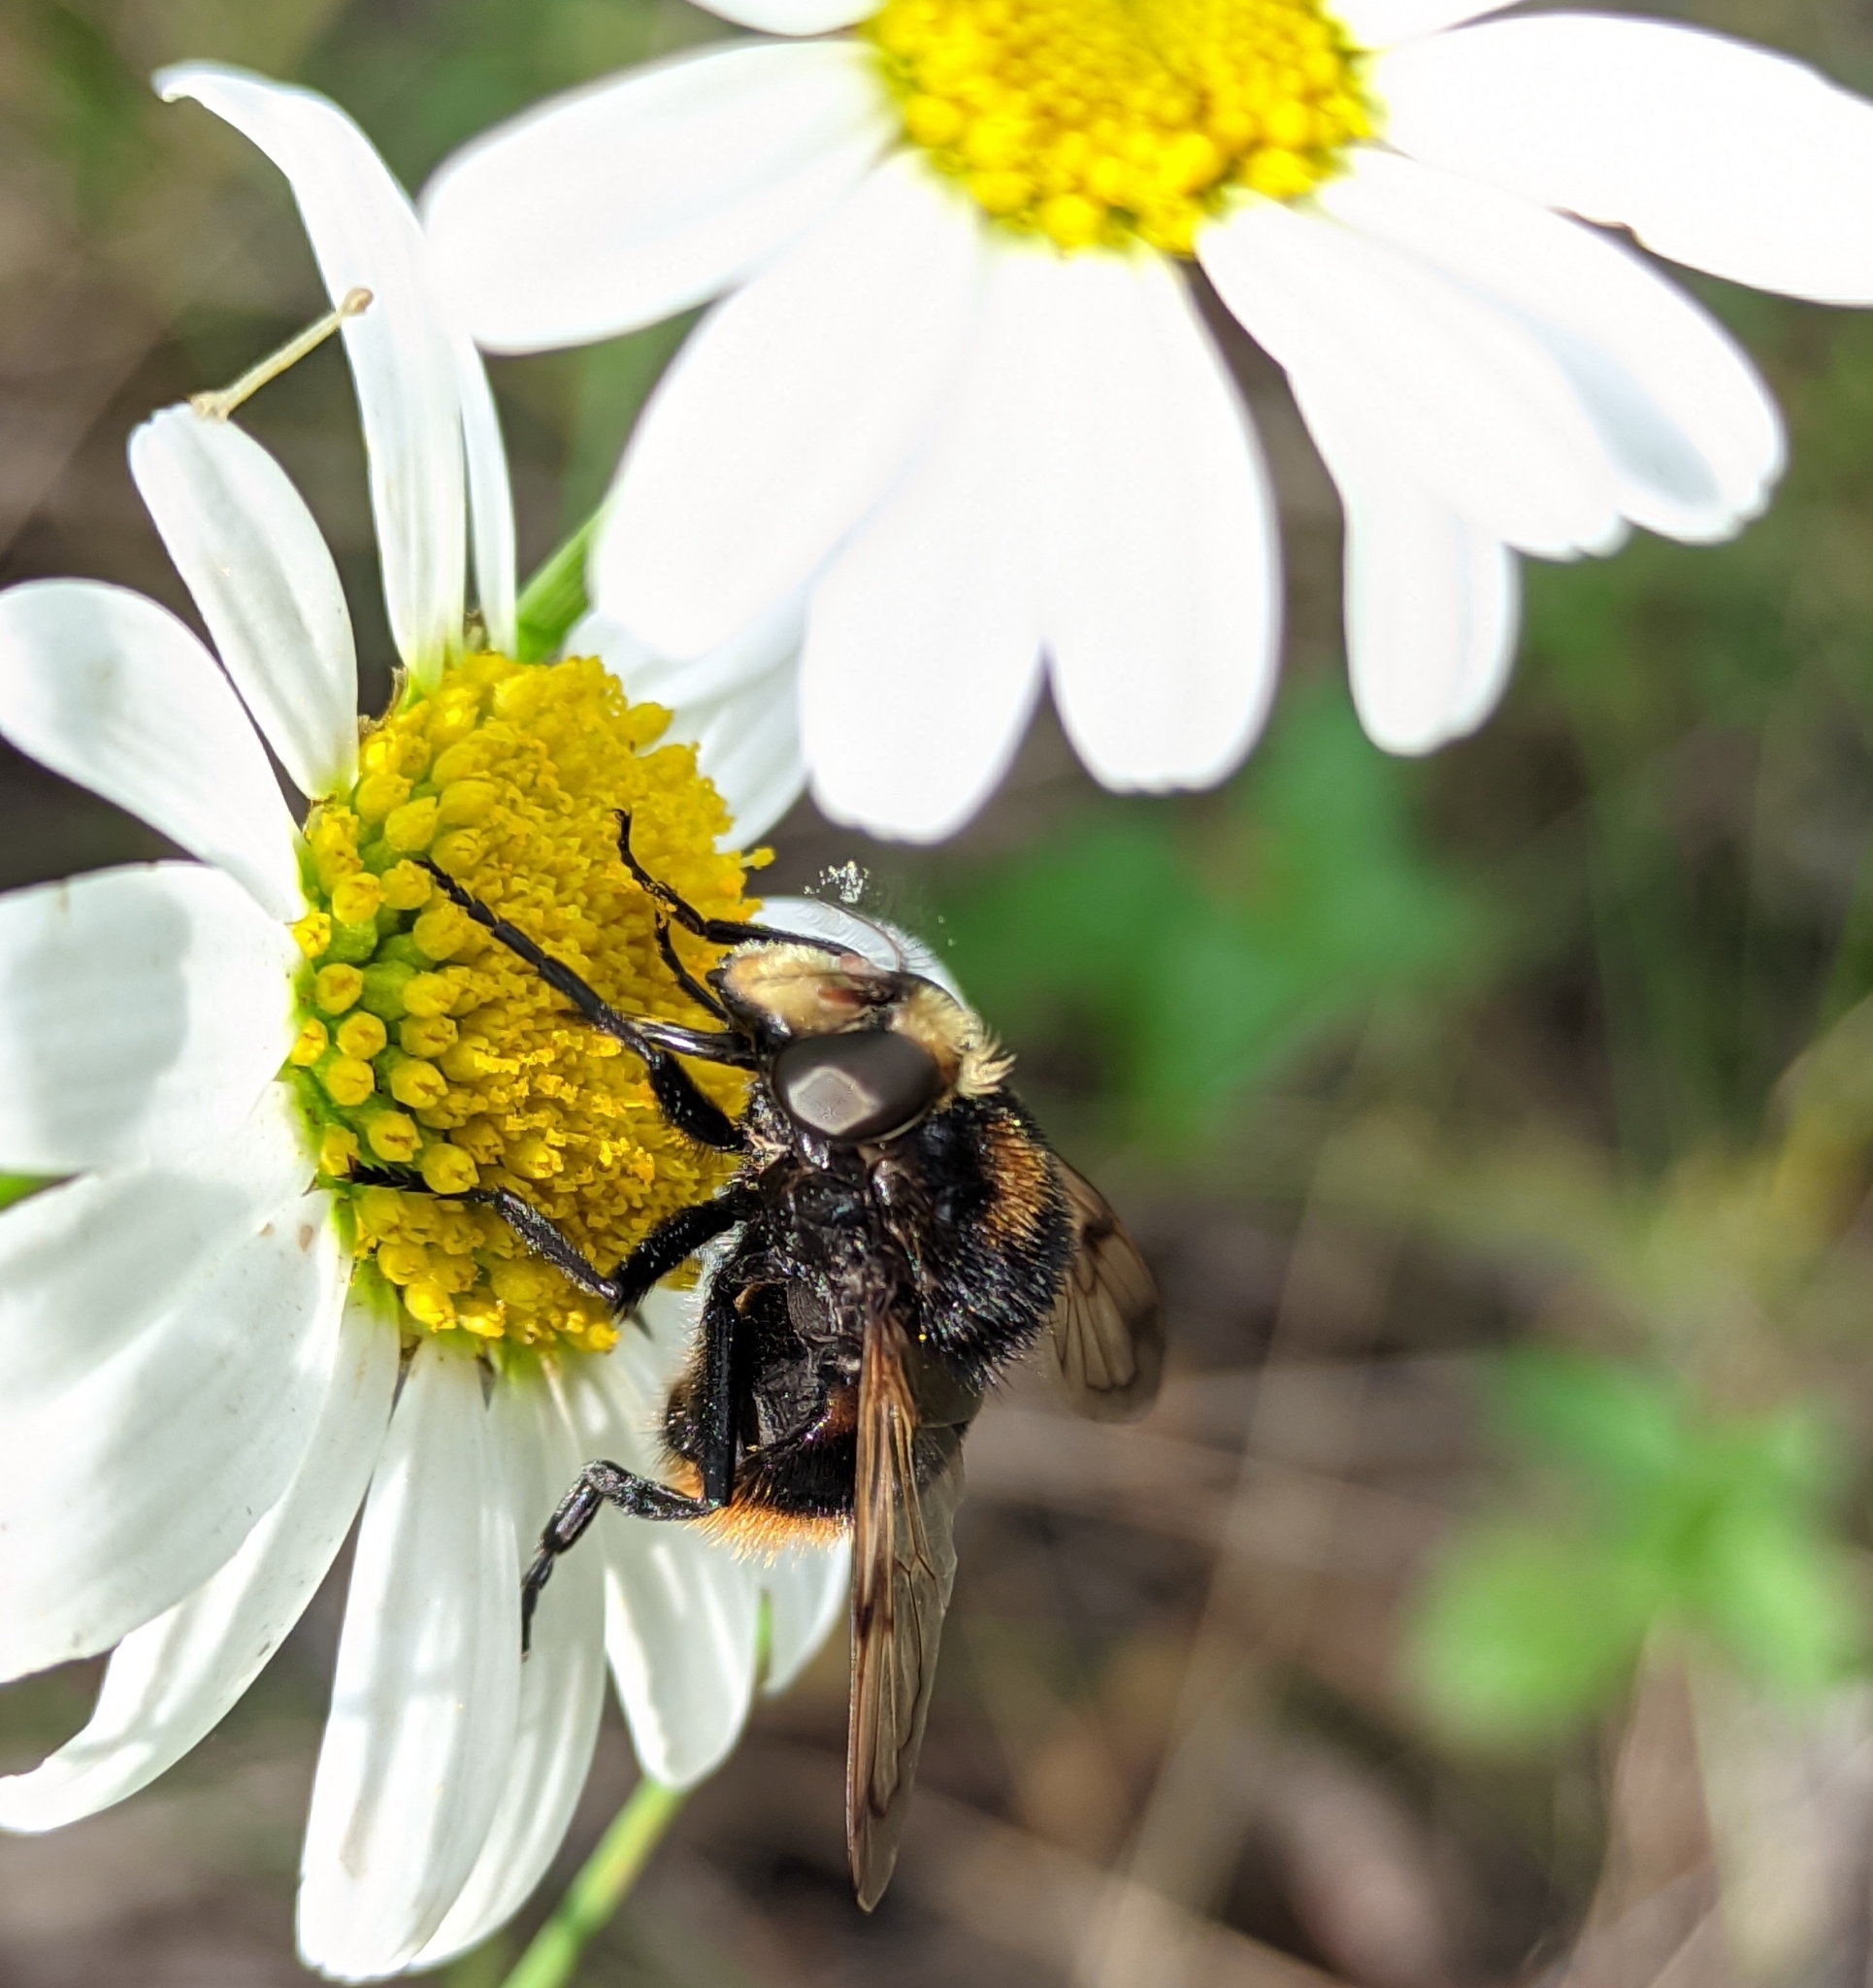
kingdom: Animalia
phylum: Arthropoda
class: Insecta
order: Diptera
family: Syrphidae
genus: Volucella
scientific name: Volucella bombylans
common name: Bumble bee hover fly
